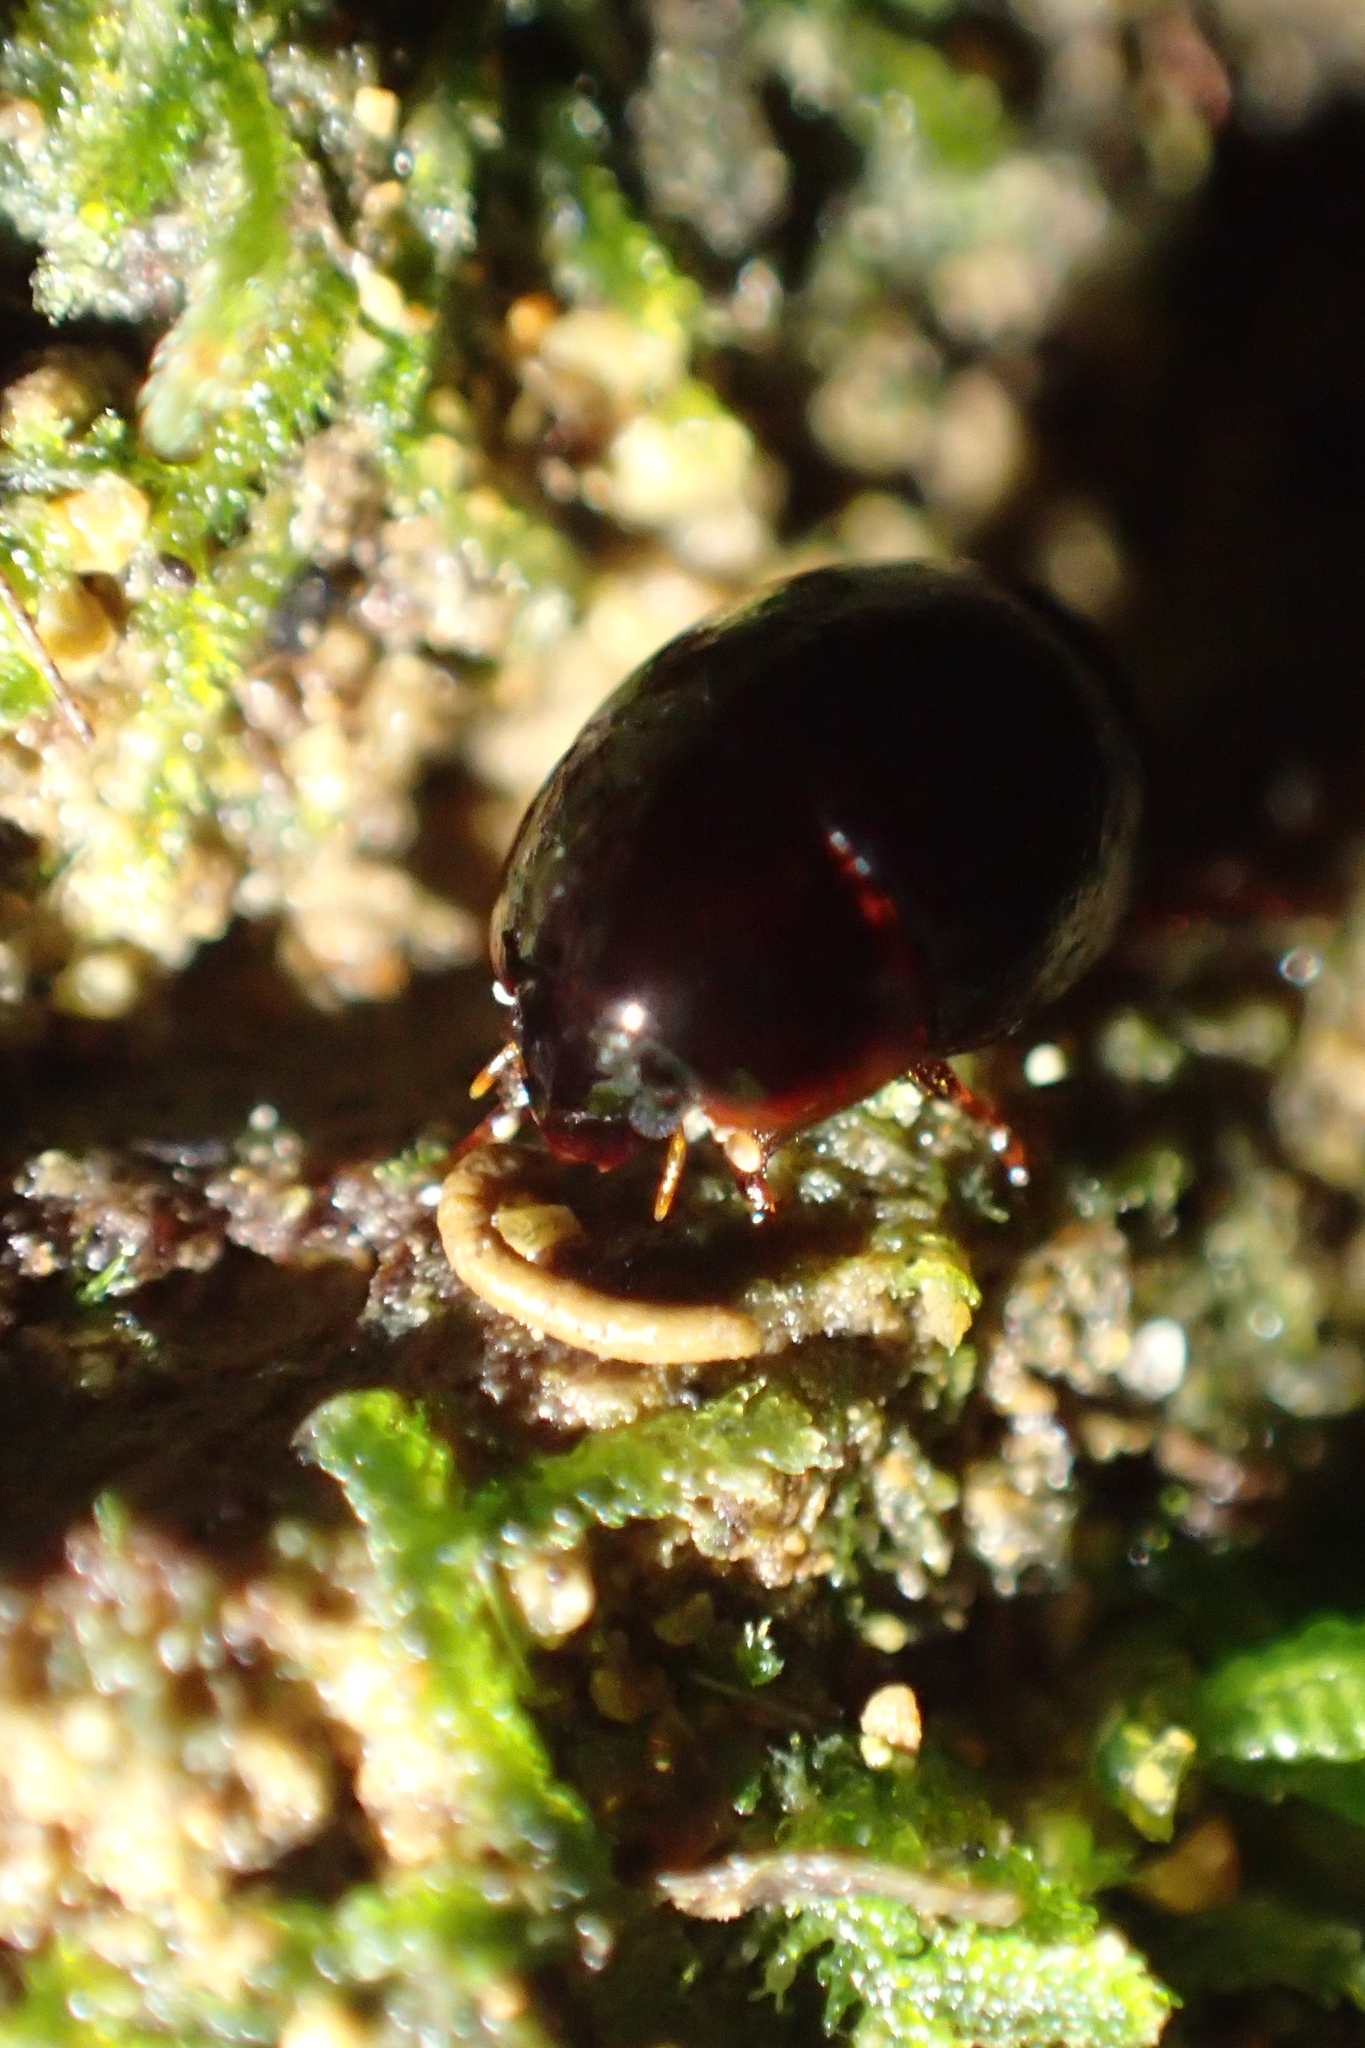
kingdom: Animalia
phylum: Arthropoda
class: Insecta
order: Coleoptera
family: Hydrophilidae
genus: Exydrus
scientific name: Exydrus gibbosus
